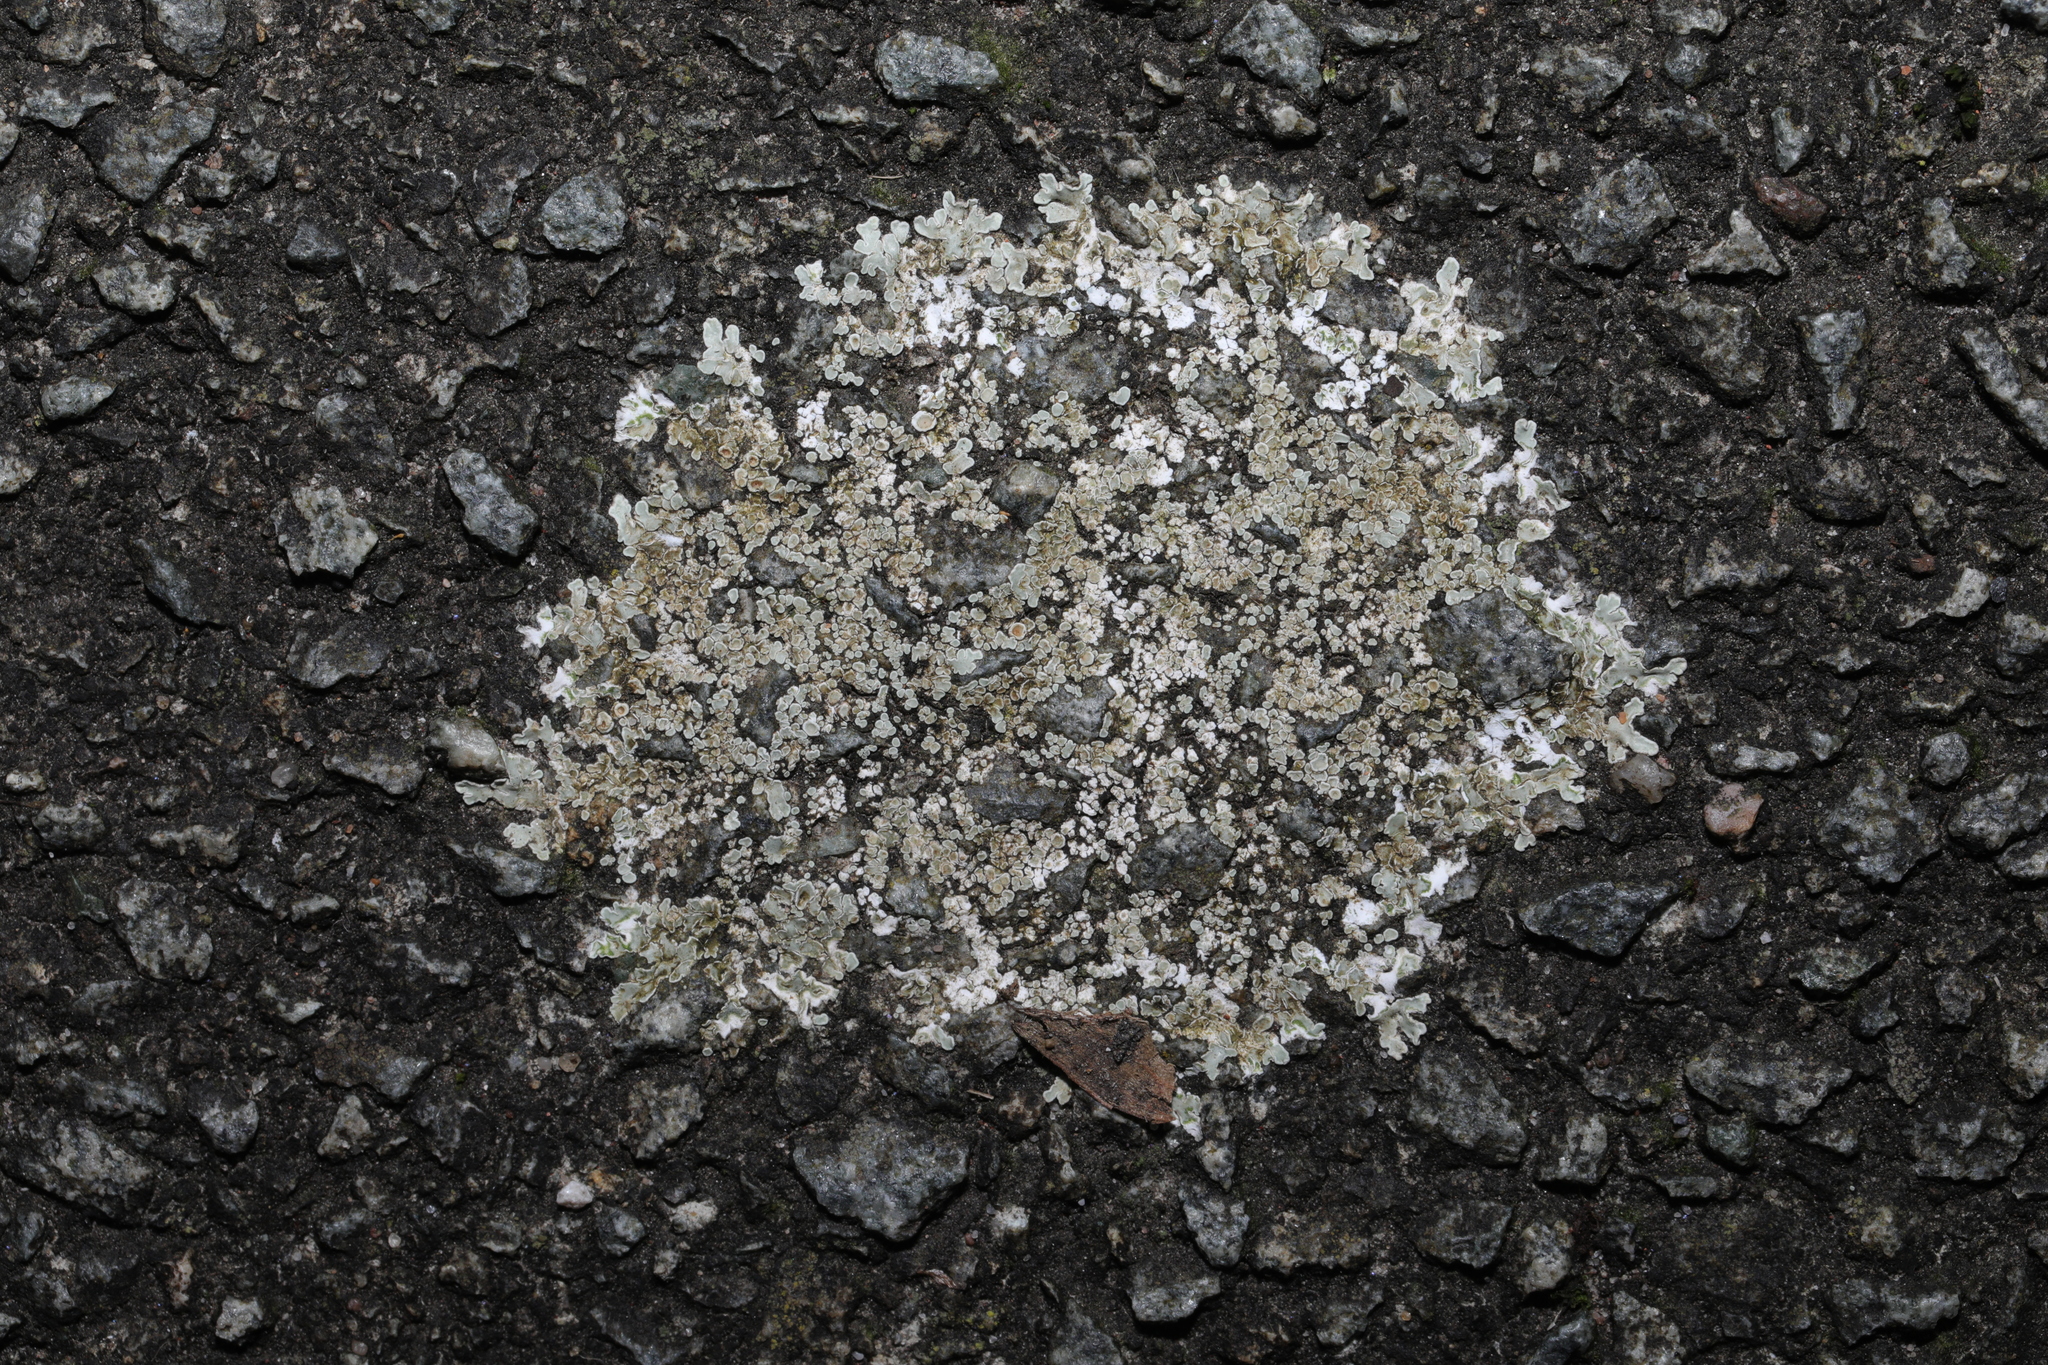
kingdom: Fungi
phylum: Ascomycota
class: Lecanoromycetes
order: Lecanorales
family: Lecanoraceae
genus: Protoparmeliopsis
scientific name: Protoparmeliopsis muralis
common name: Stonewall rim lichen
